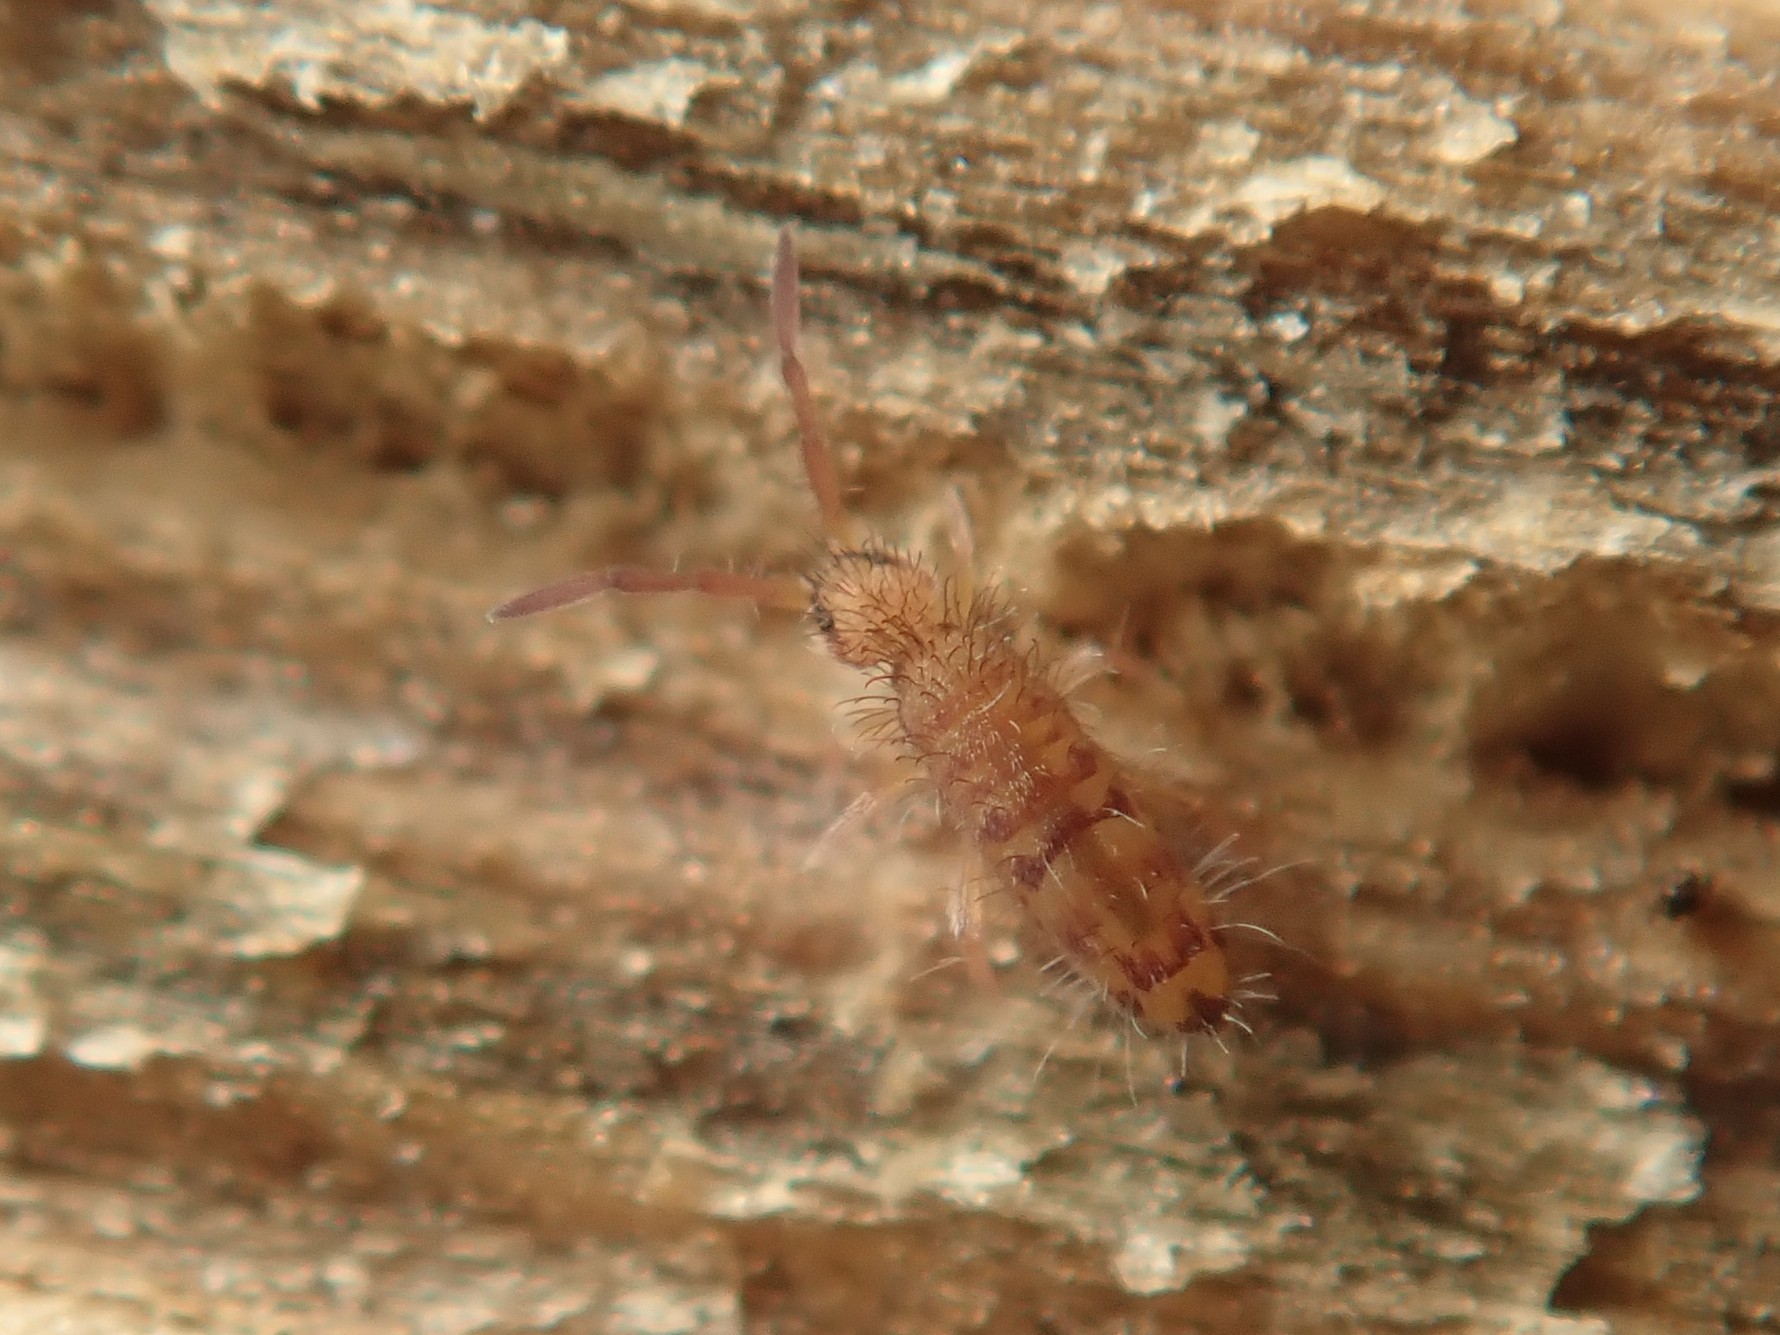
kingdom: Animalia
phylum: Arthropoda
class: Collembola
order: Entomobryomorpha
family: Entomobryidae
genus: Entomobrya
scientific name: Entomobrya multifasciata
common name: Springtail
